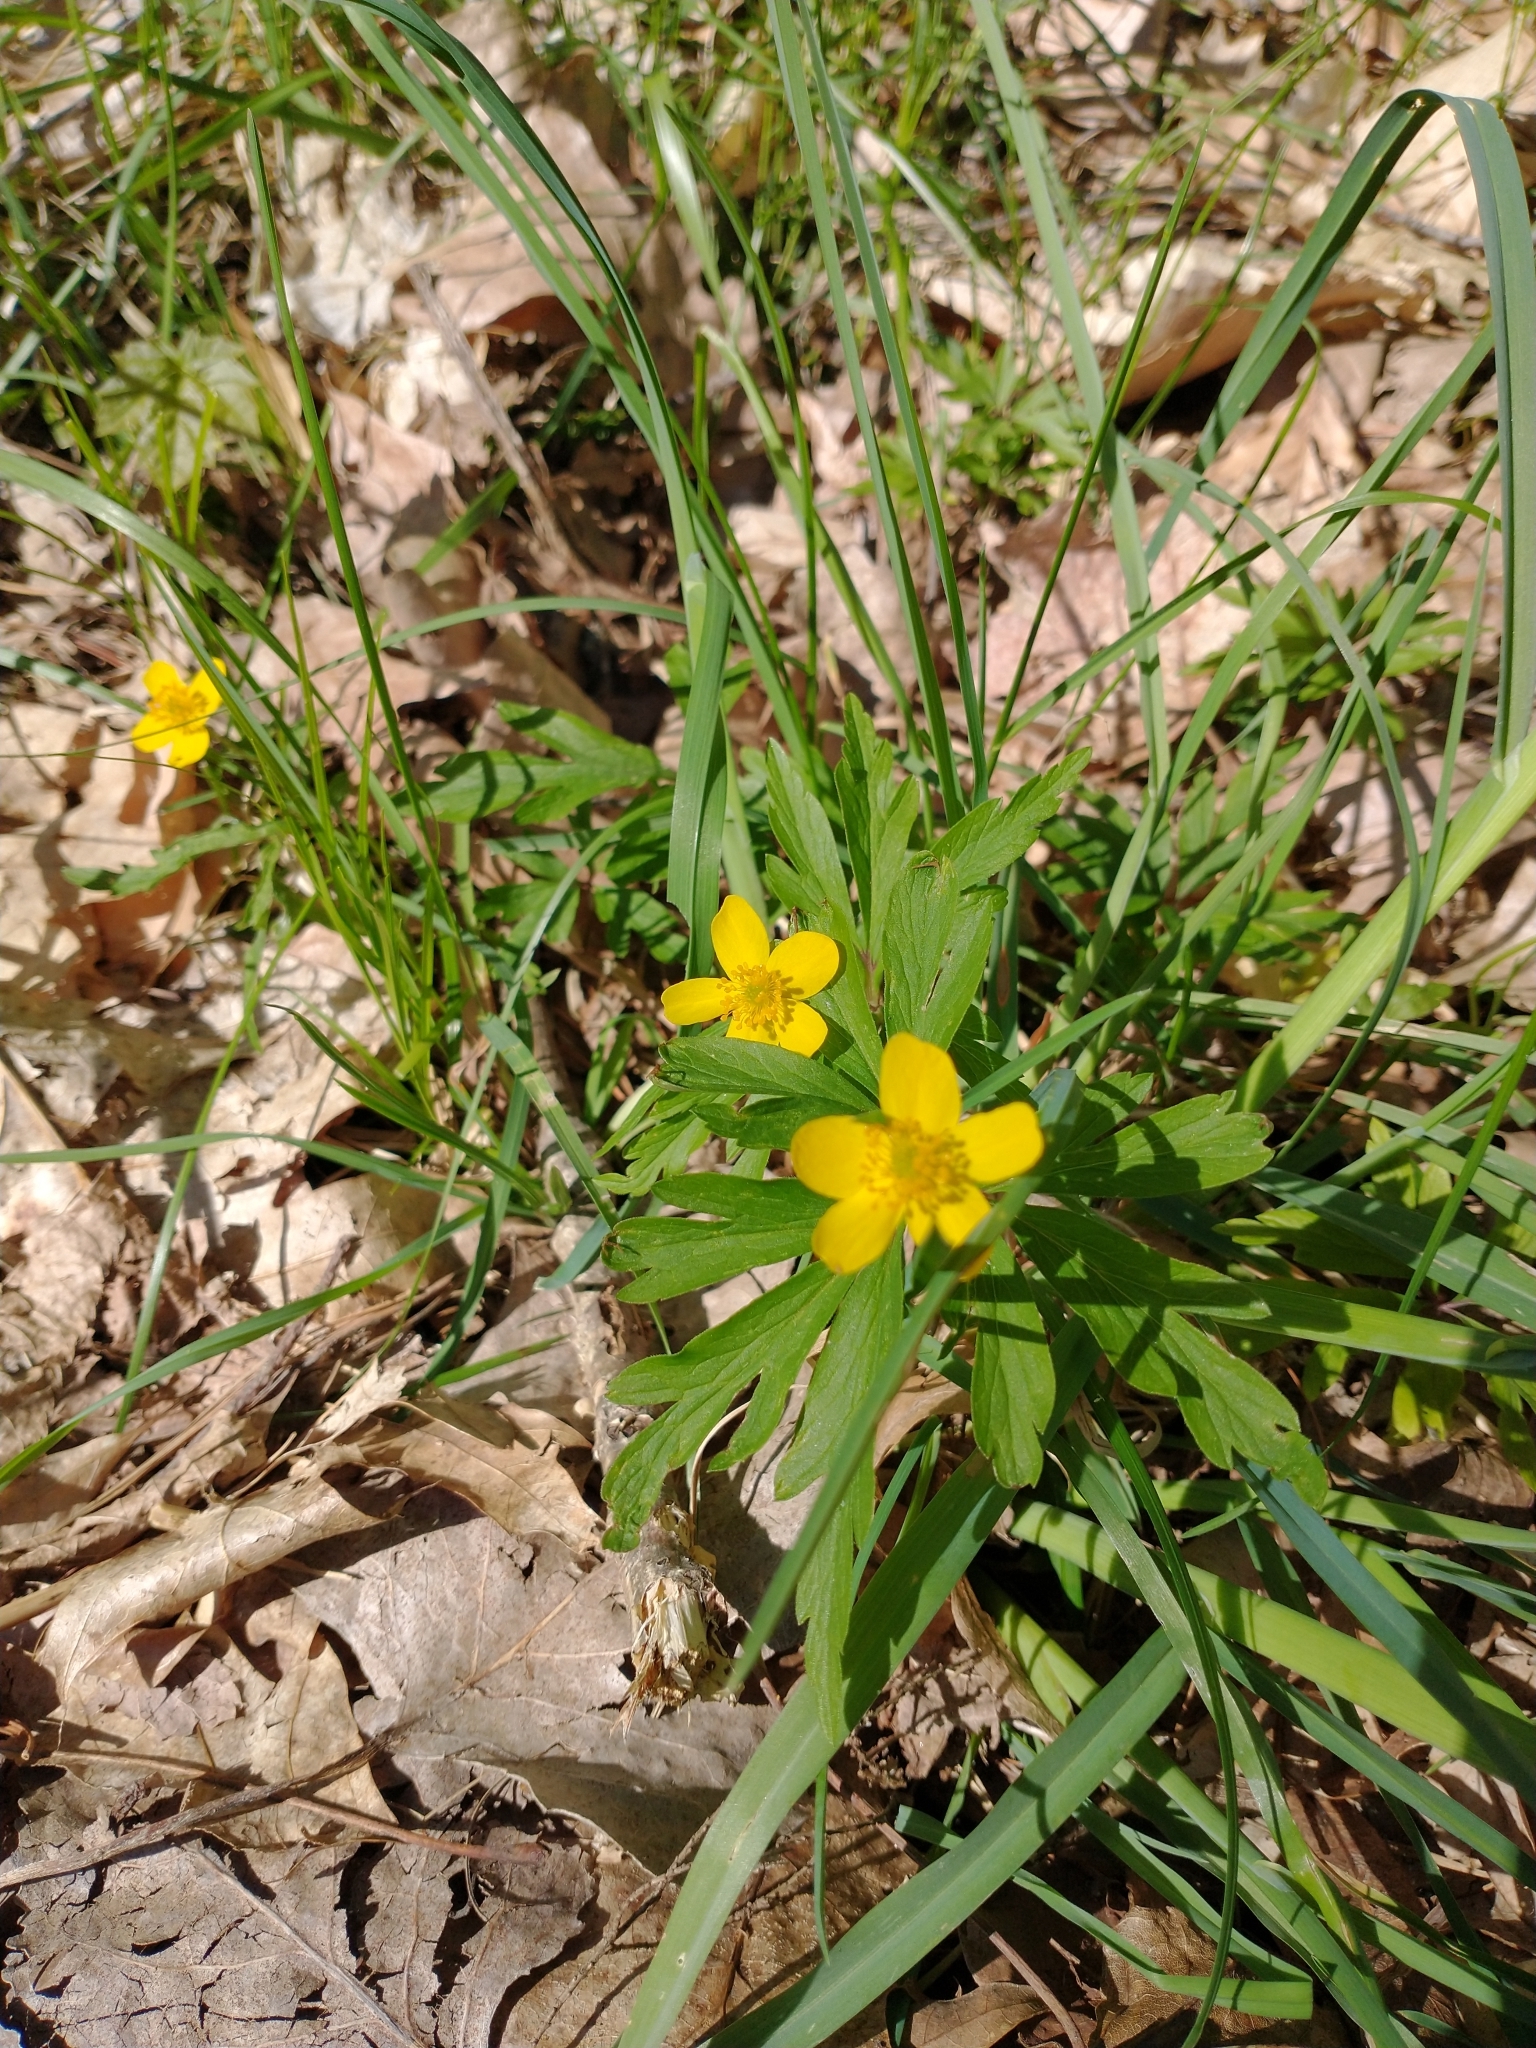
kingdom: Plantae
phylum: Tracheophyta
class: Magnoliopsida
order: Ranunculales
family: Ranunculaceae
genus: Anemone
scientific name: Anemone ranunculoides
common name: Yellow anemone
